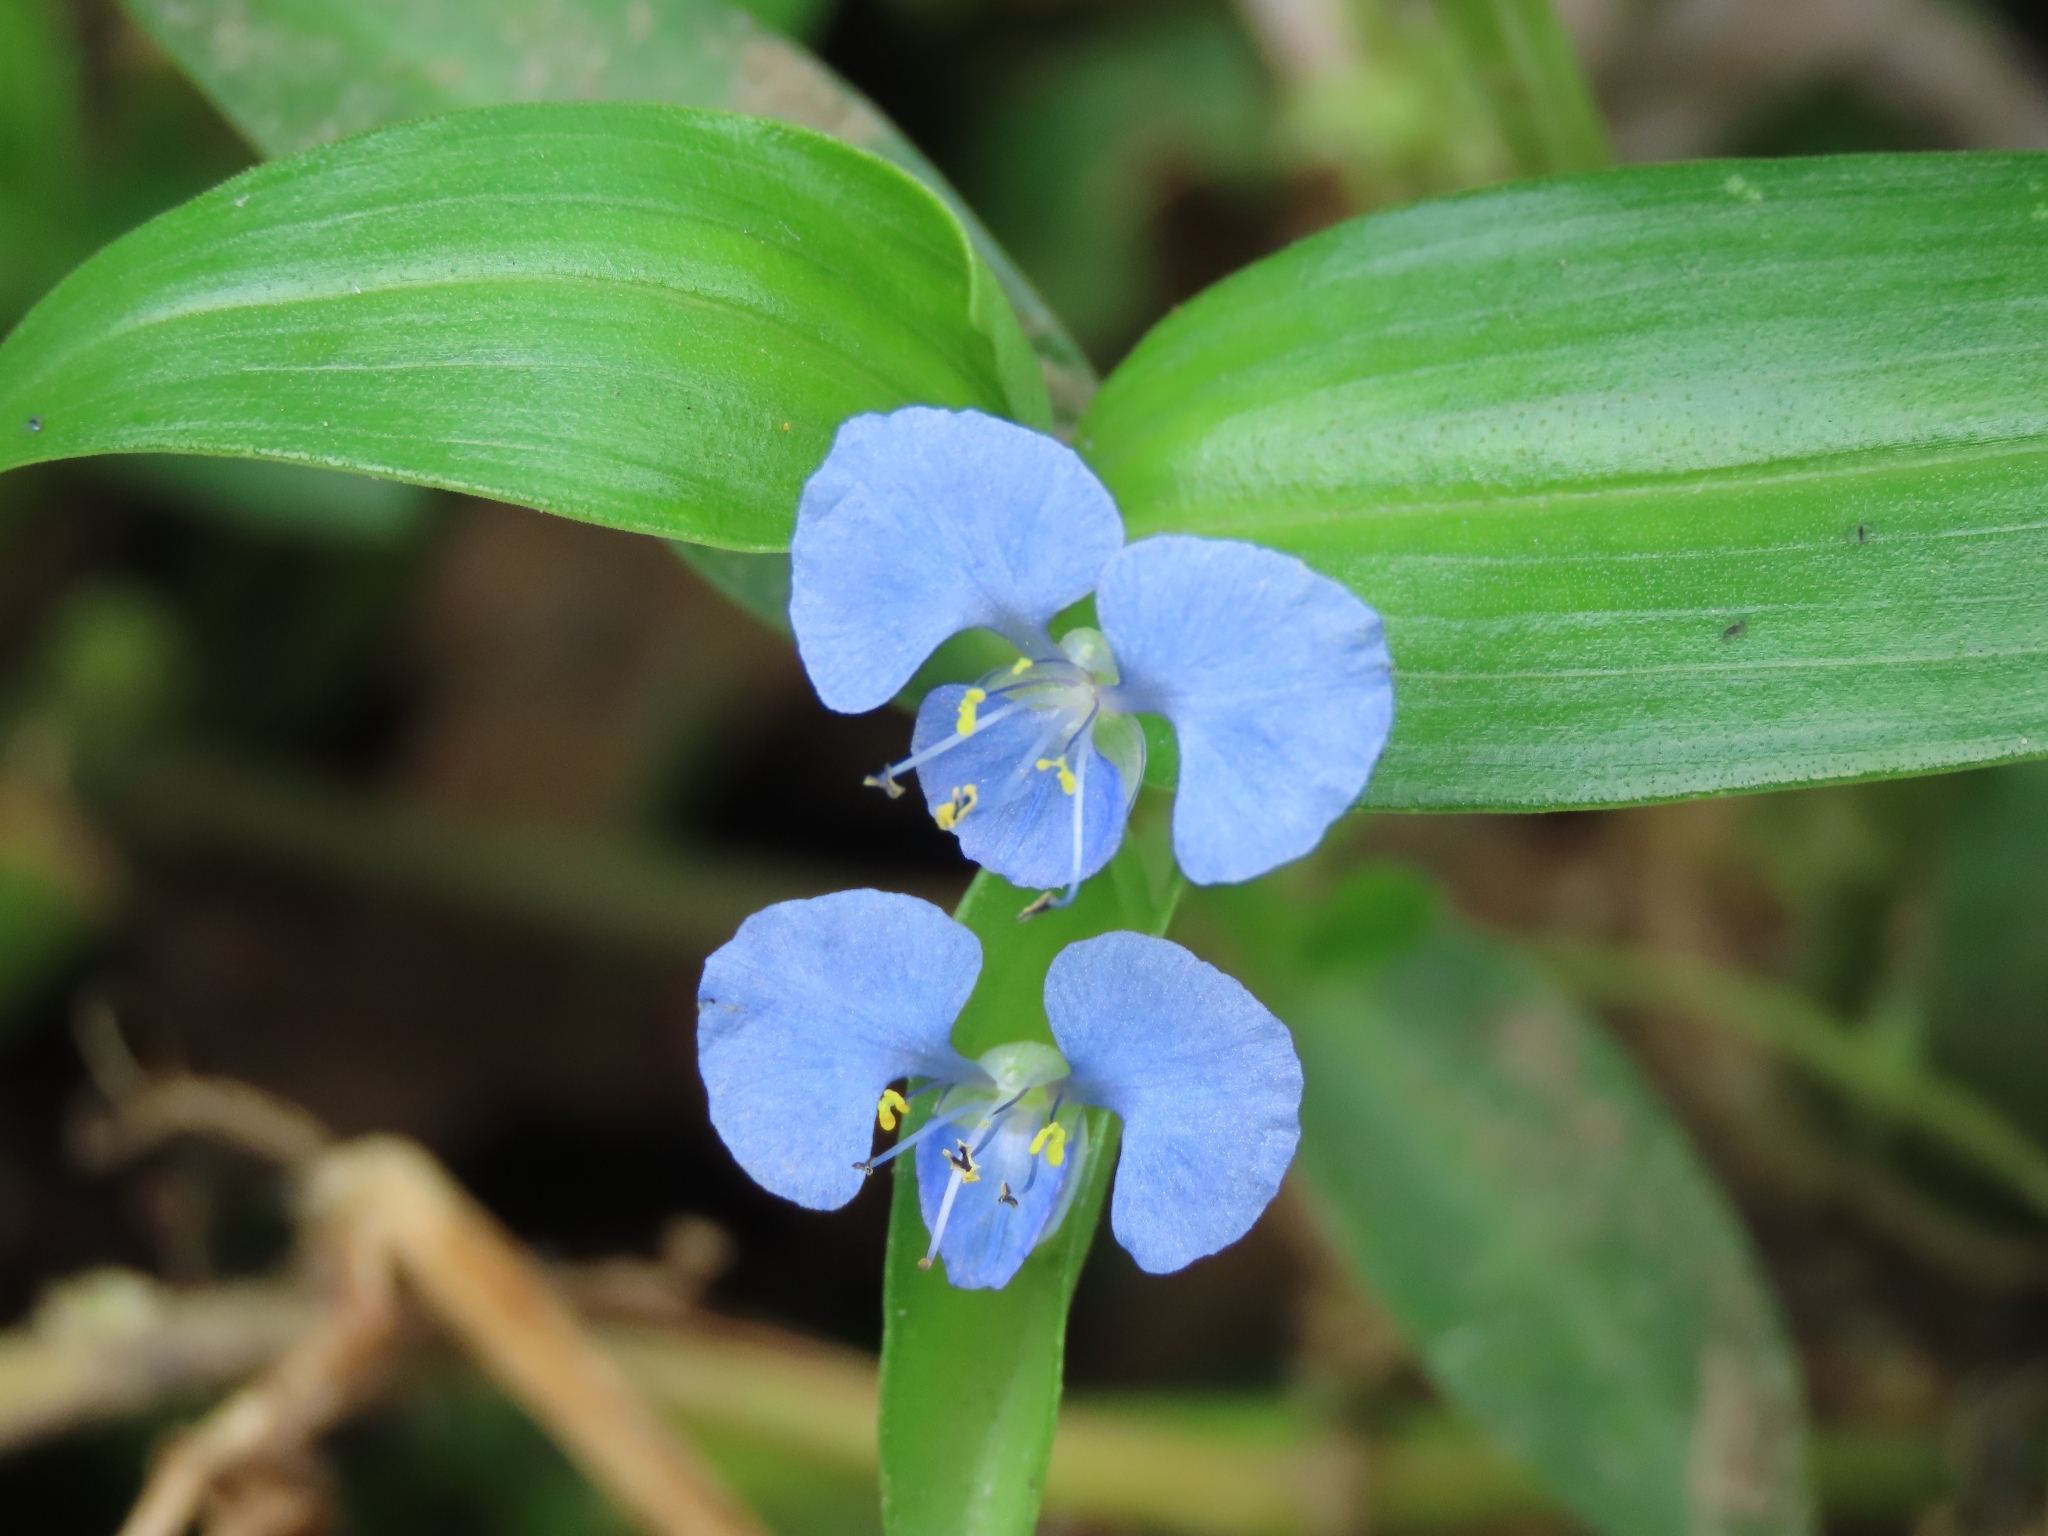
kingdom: Plantae
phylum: Tracheophyta
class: Liliopsida
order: Commelinales
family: Commelinaceae
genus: Commelina
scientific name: Commelina diffusa
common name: Climbing dayflower
